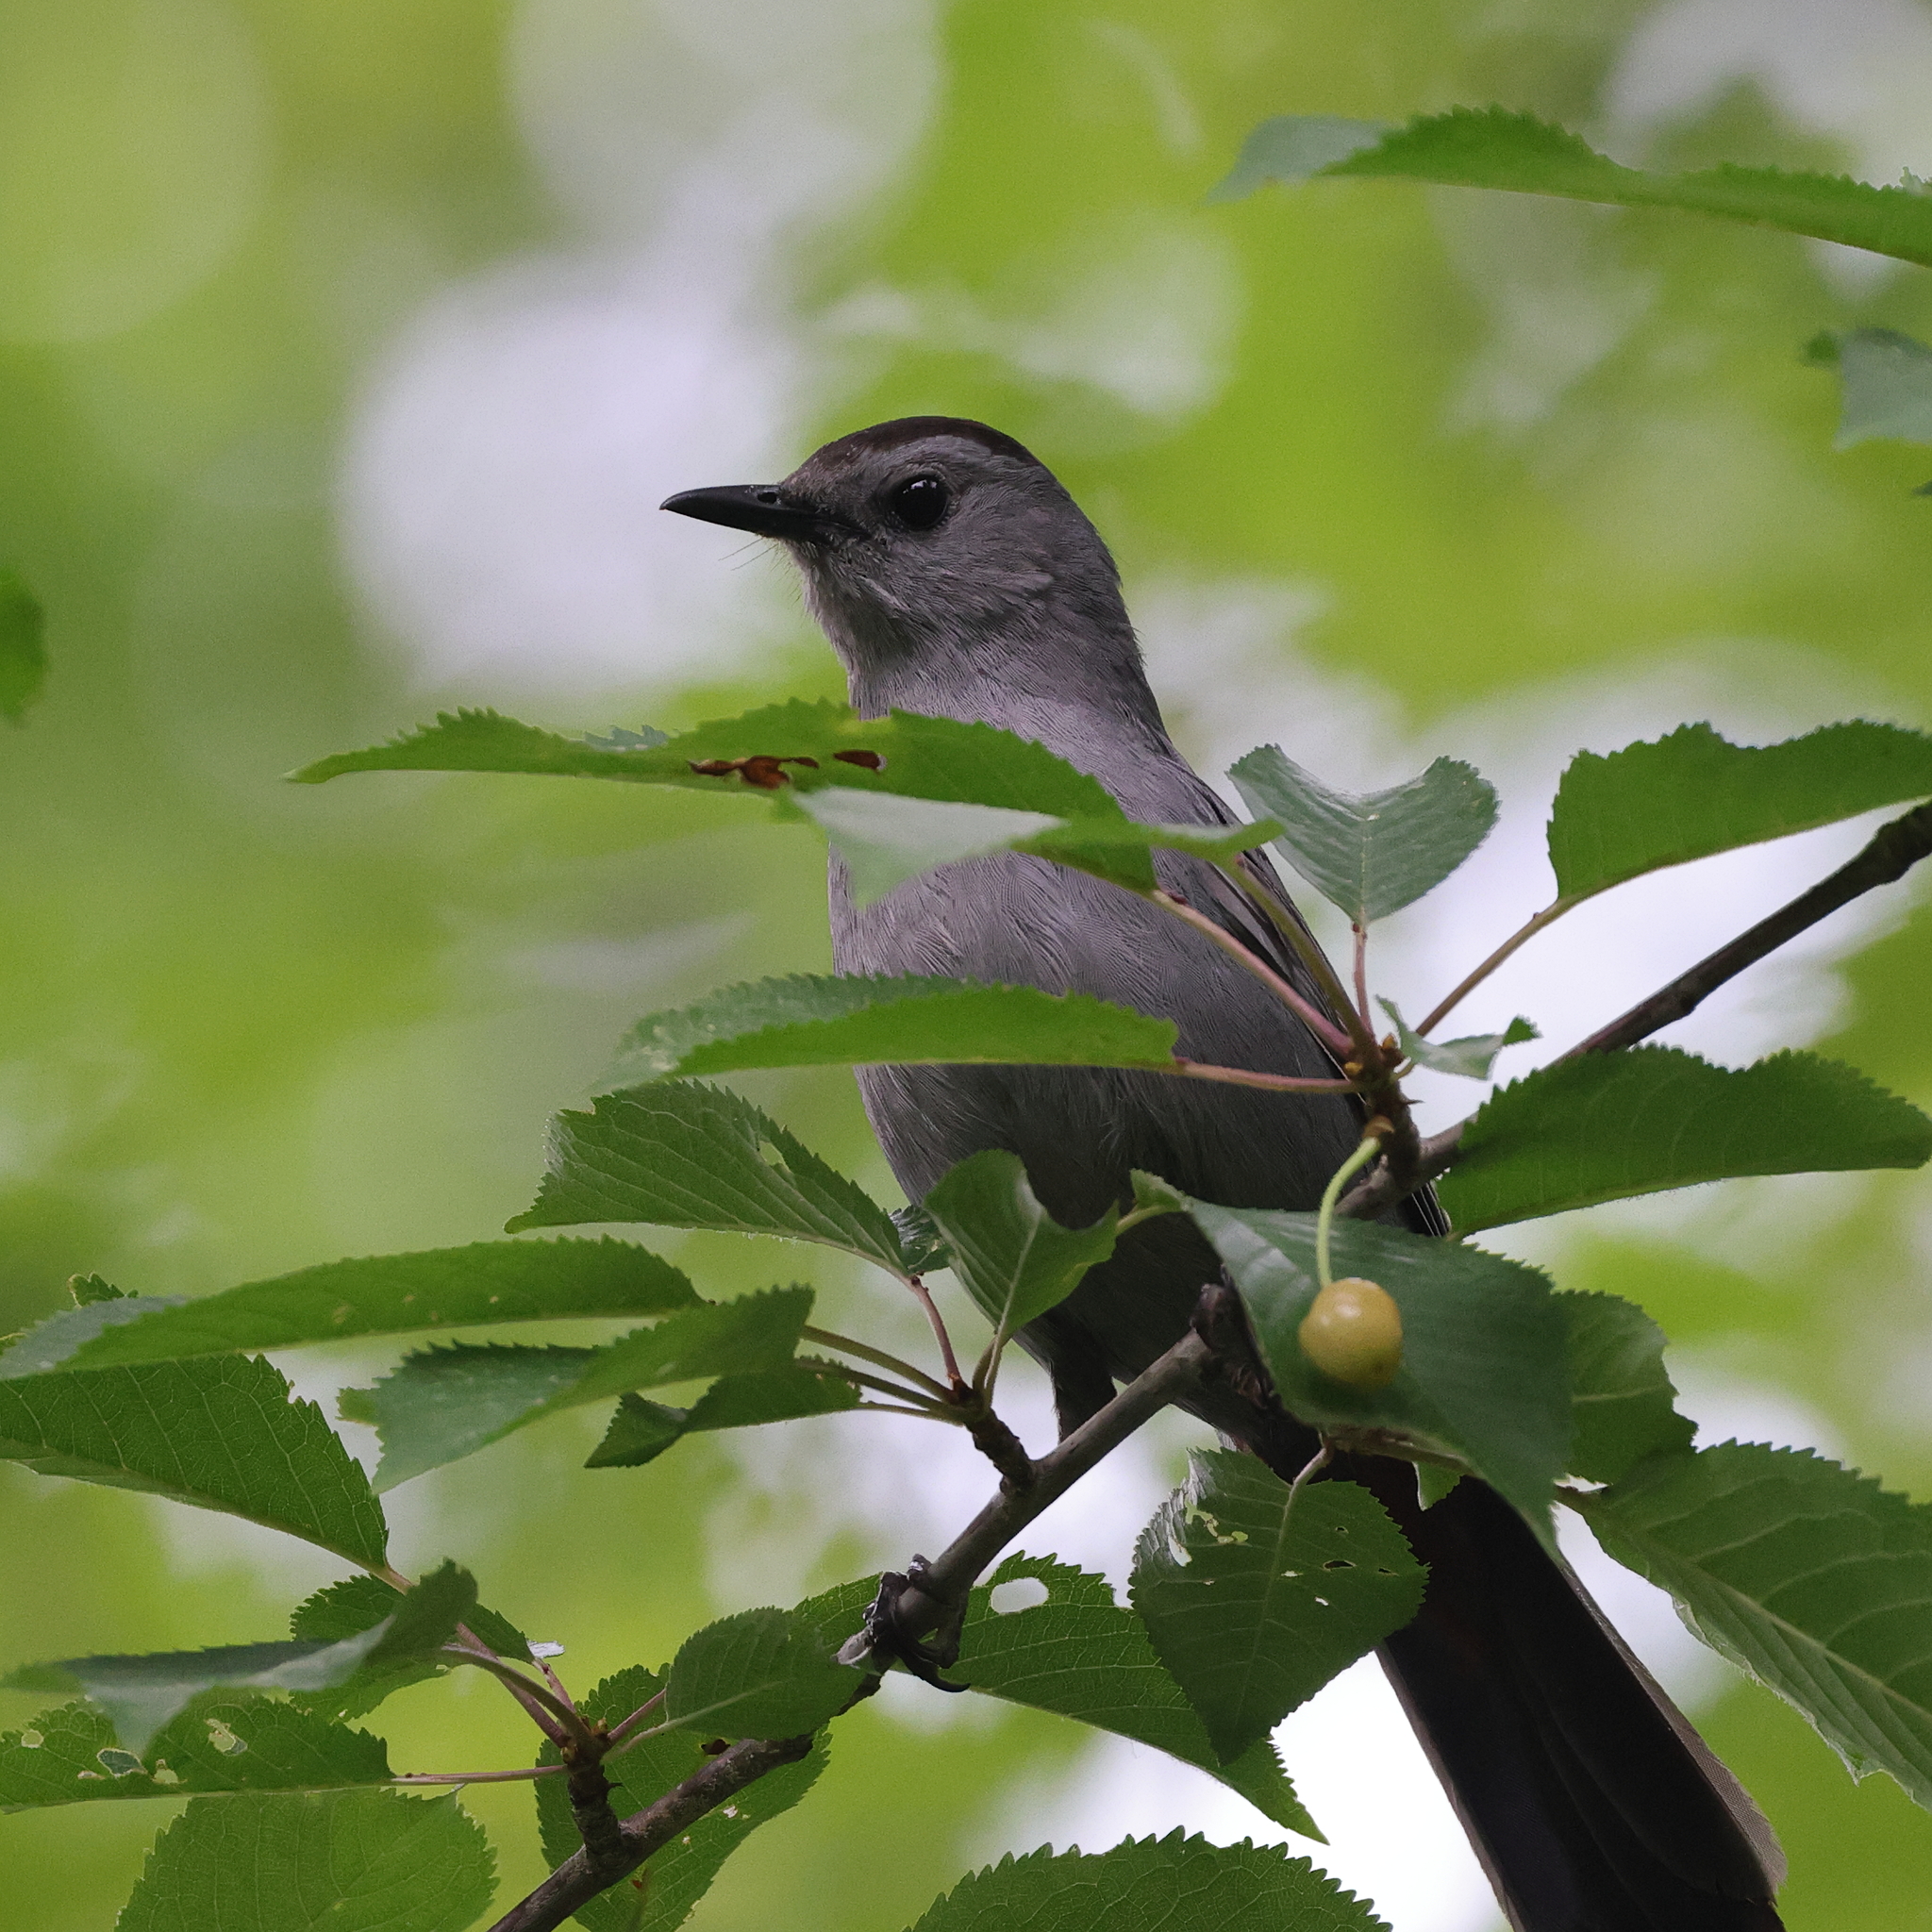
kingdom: Animalia
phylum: Chordata
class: Aves
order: Passeriformes
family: Mimidae
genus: Dumetella
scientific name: Dumetella carolinensis
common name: Gray catbird
